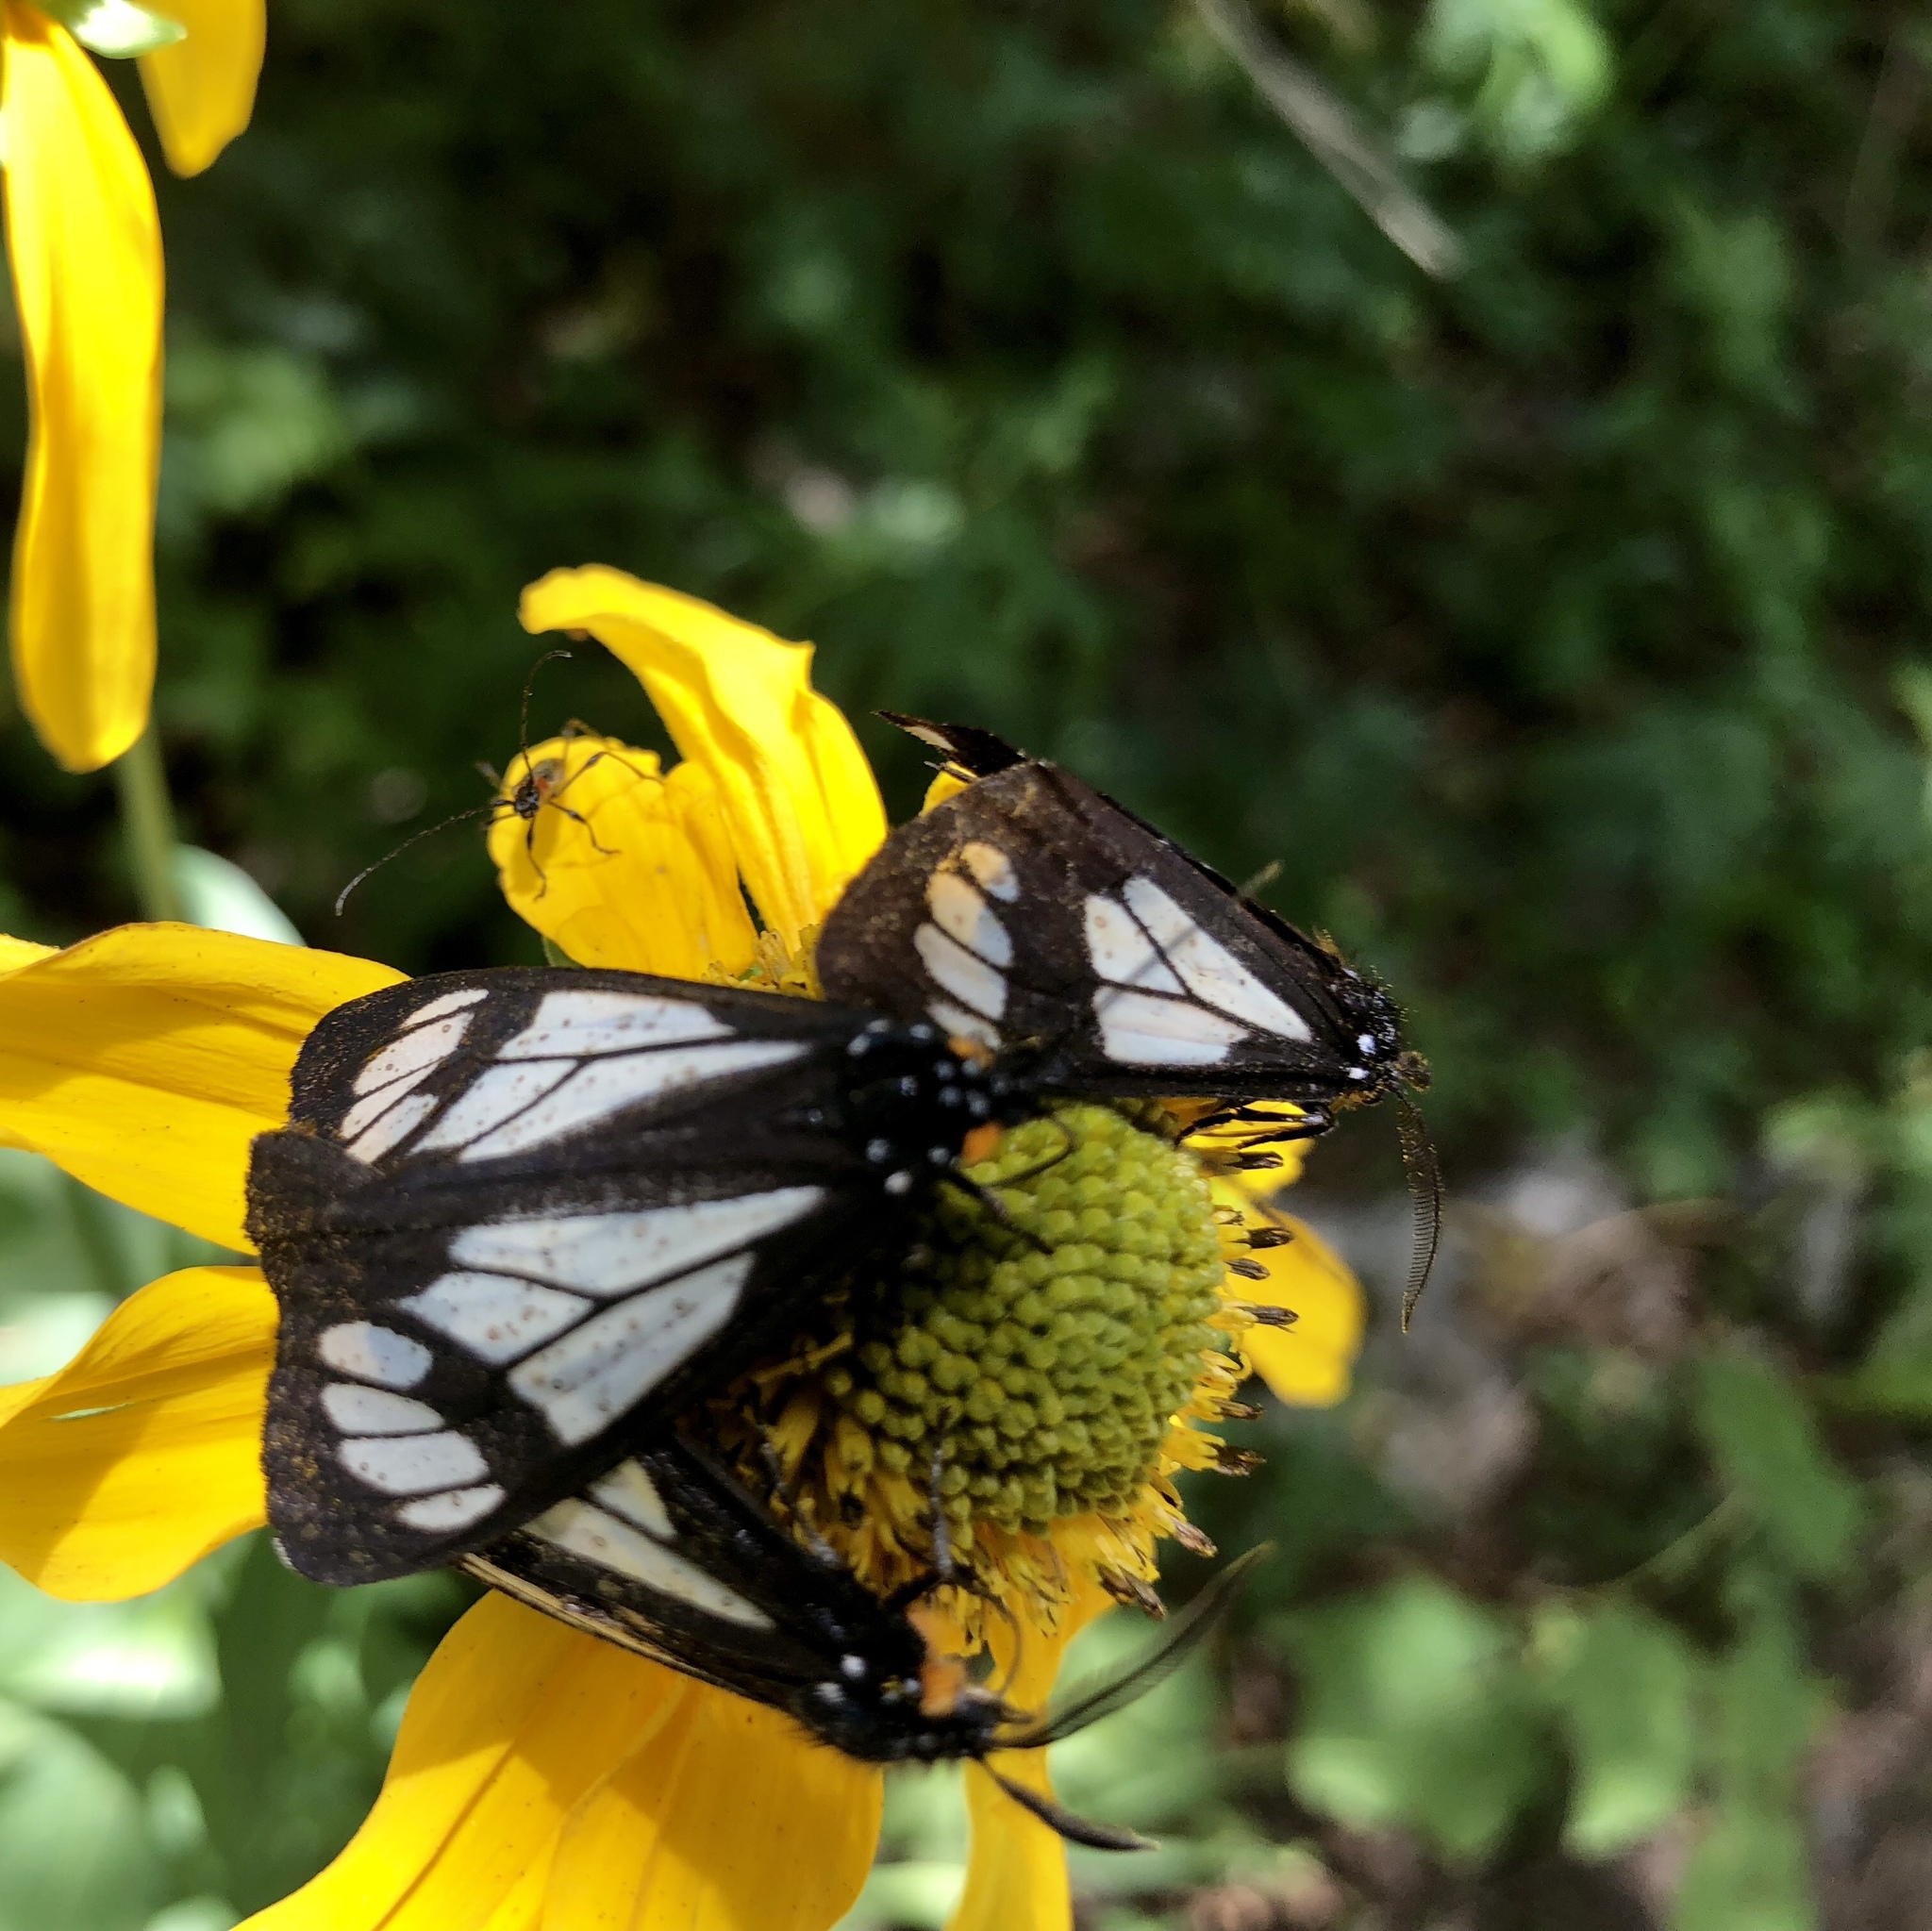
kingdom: Animalia
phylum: Arthropoda
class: Insecta
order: Lepidoptera
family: Erebidae
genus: Gnophaela
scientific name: Gnophaela vermiculata
